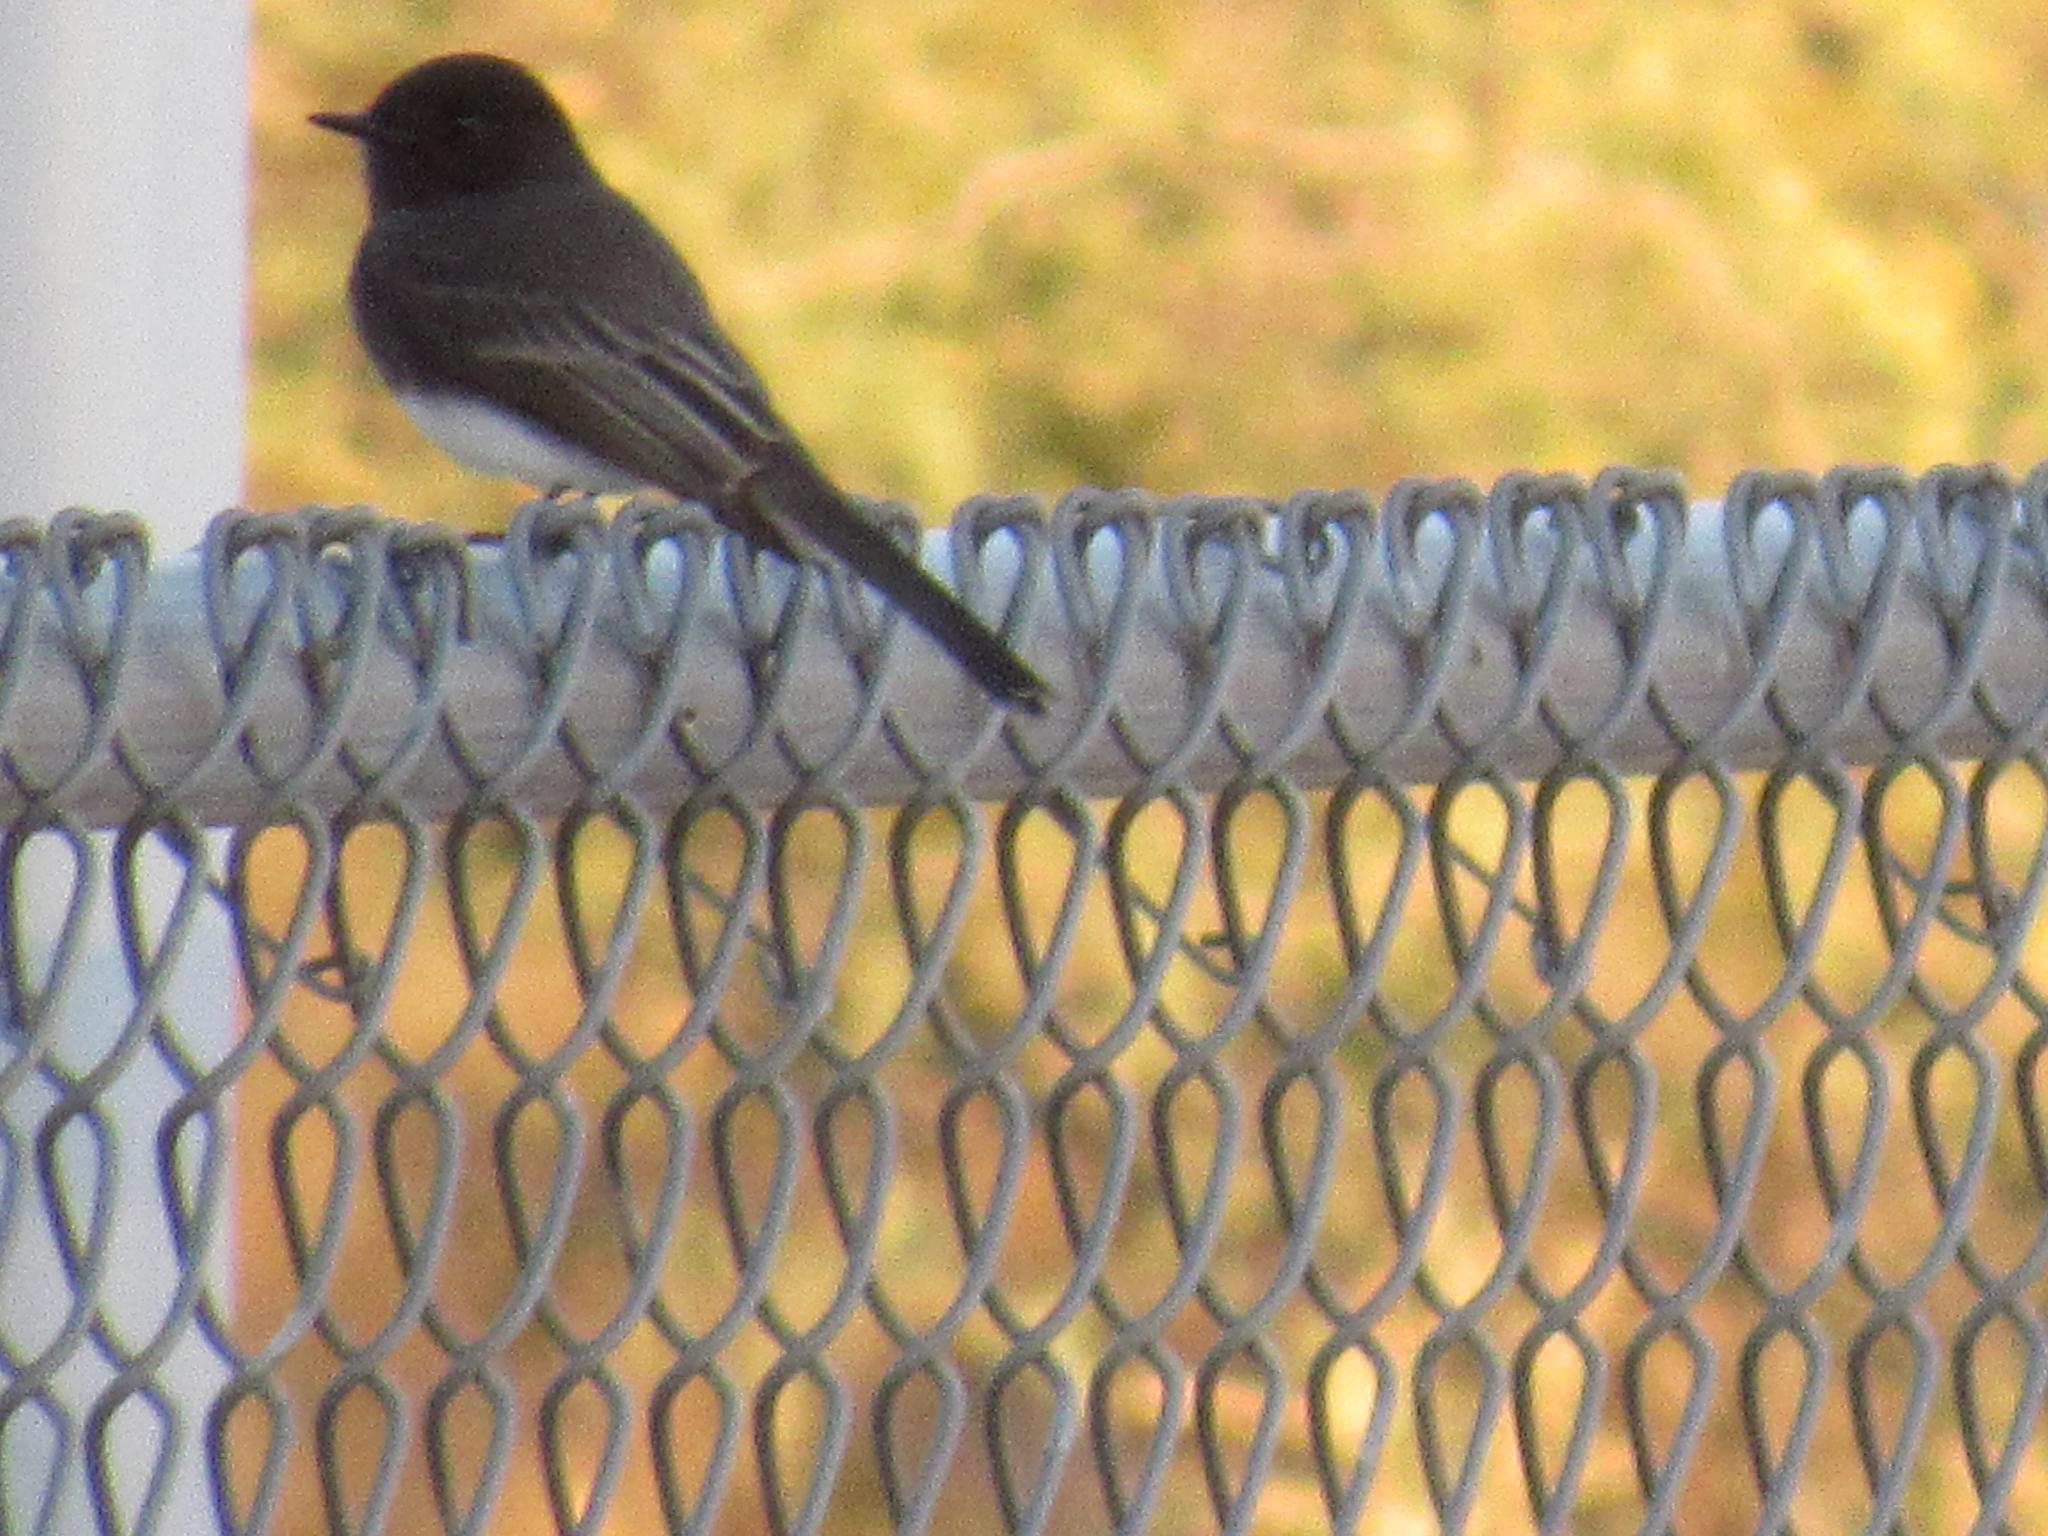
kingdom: Animalia
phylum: Chordata
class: Aves
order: Passeriformes
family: Tyrannidae
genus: Sayornis
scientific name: Sayornis nigricans
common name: Black phoebe
